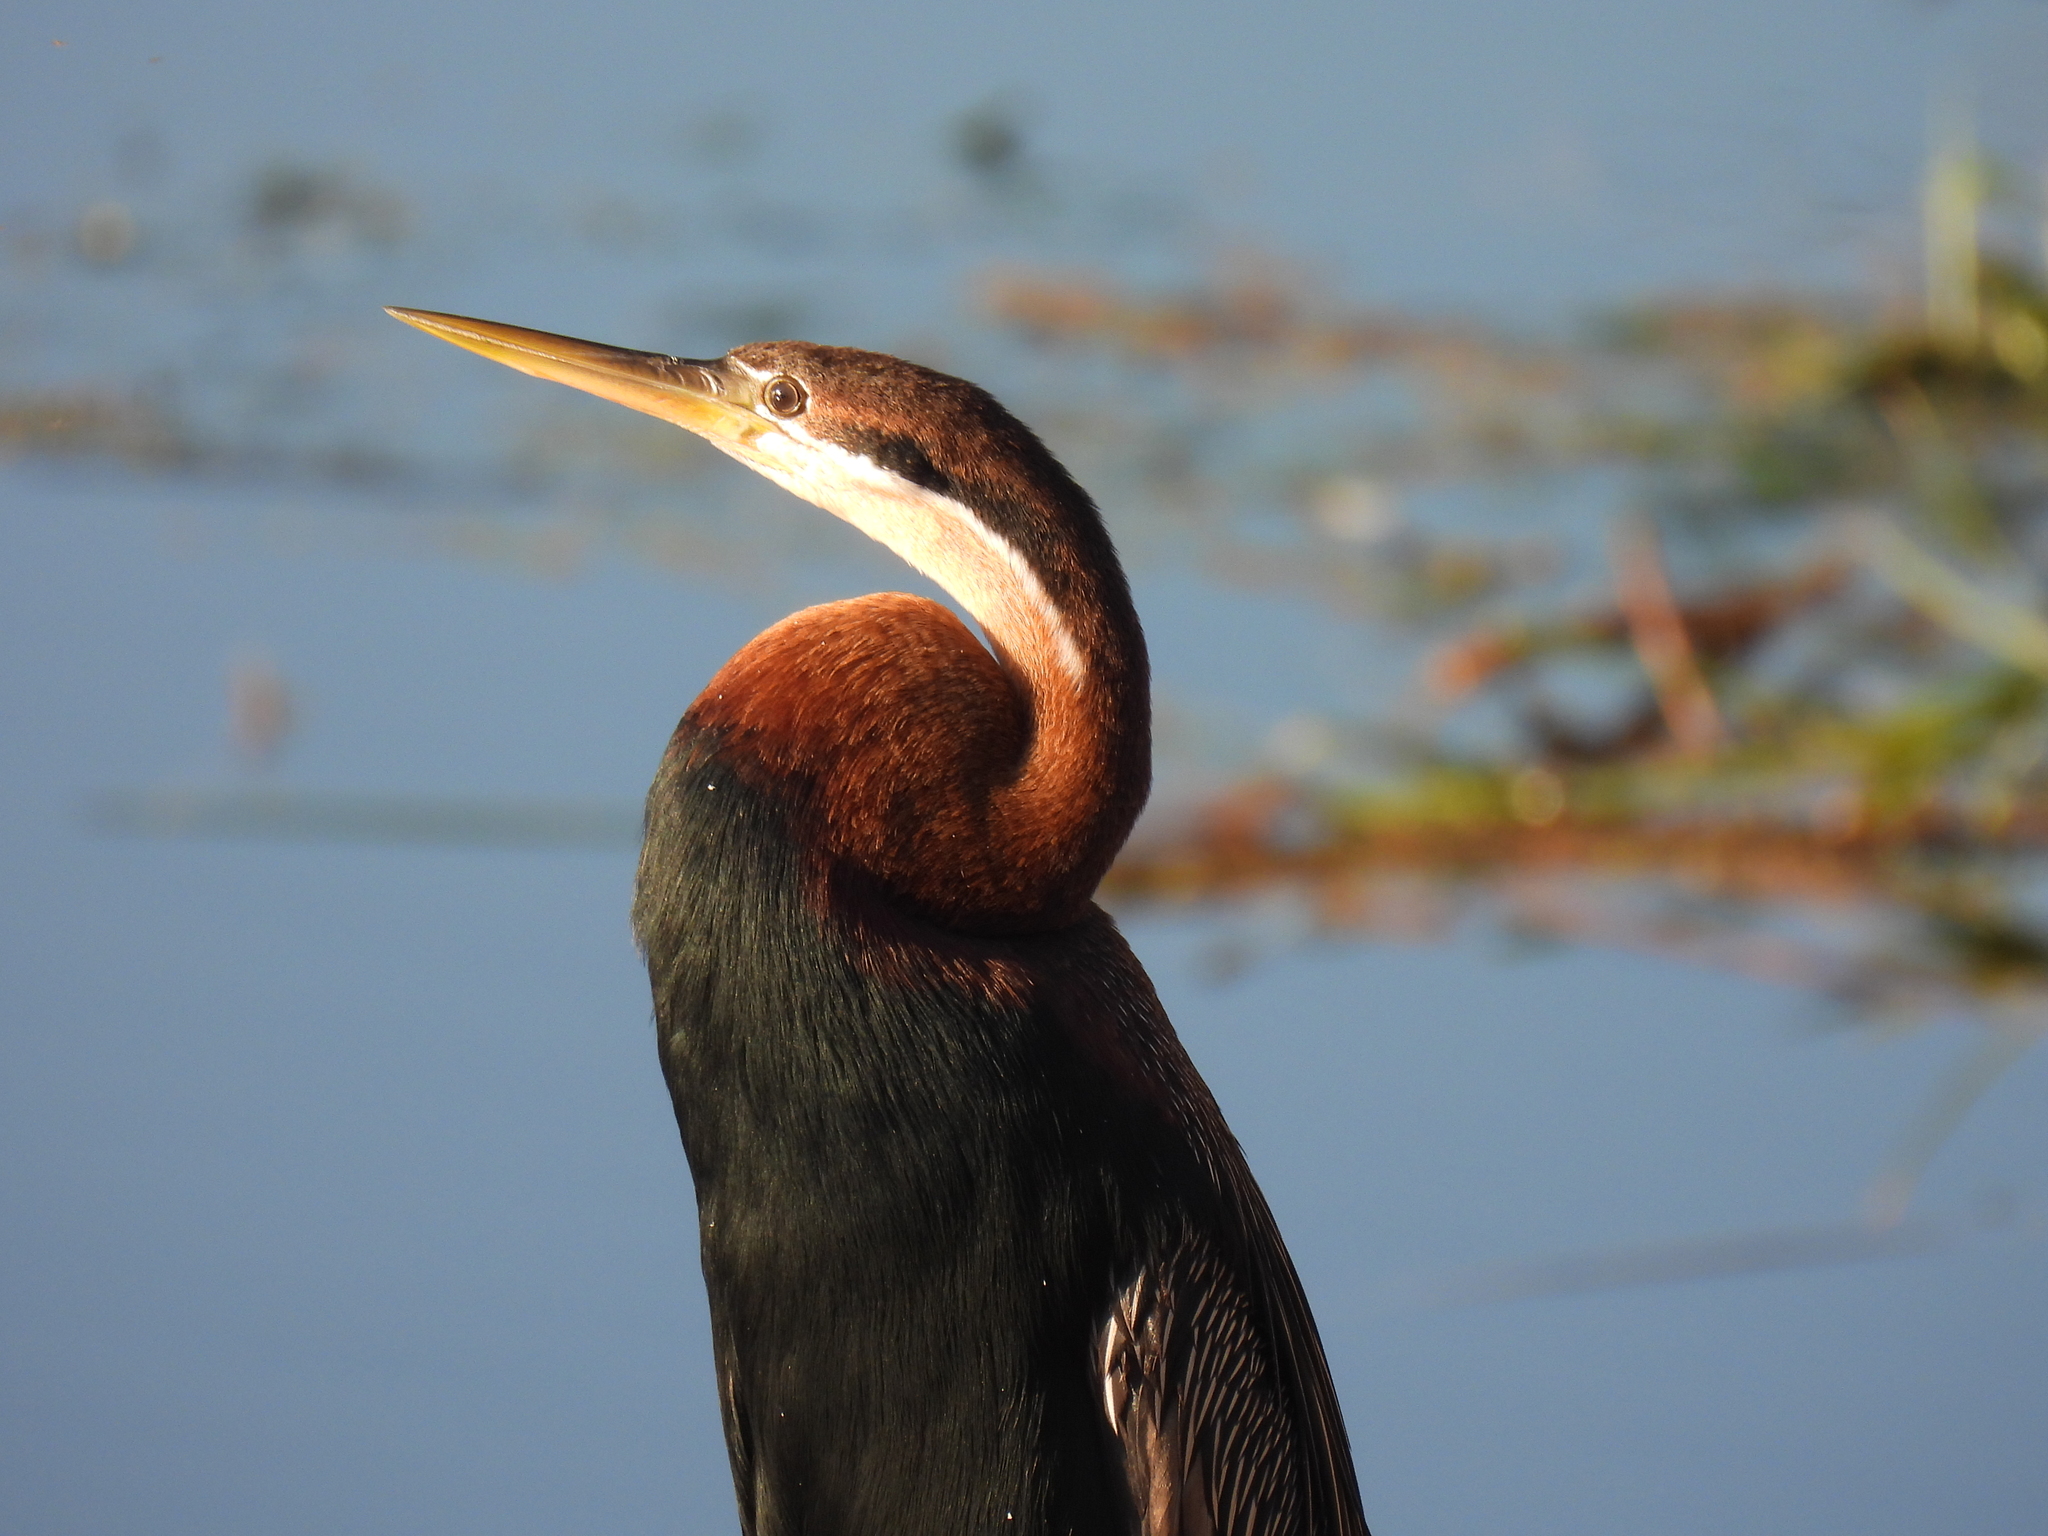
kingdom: Animalia
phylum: Chordata
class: Aves
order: Suliformes
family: Anhingidae
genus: Anhinga
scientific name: Anhinga rufa
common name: African darter
